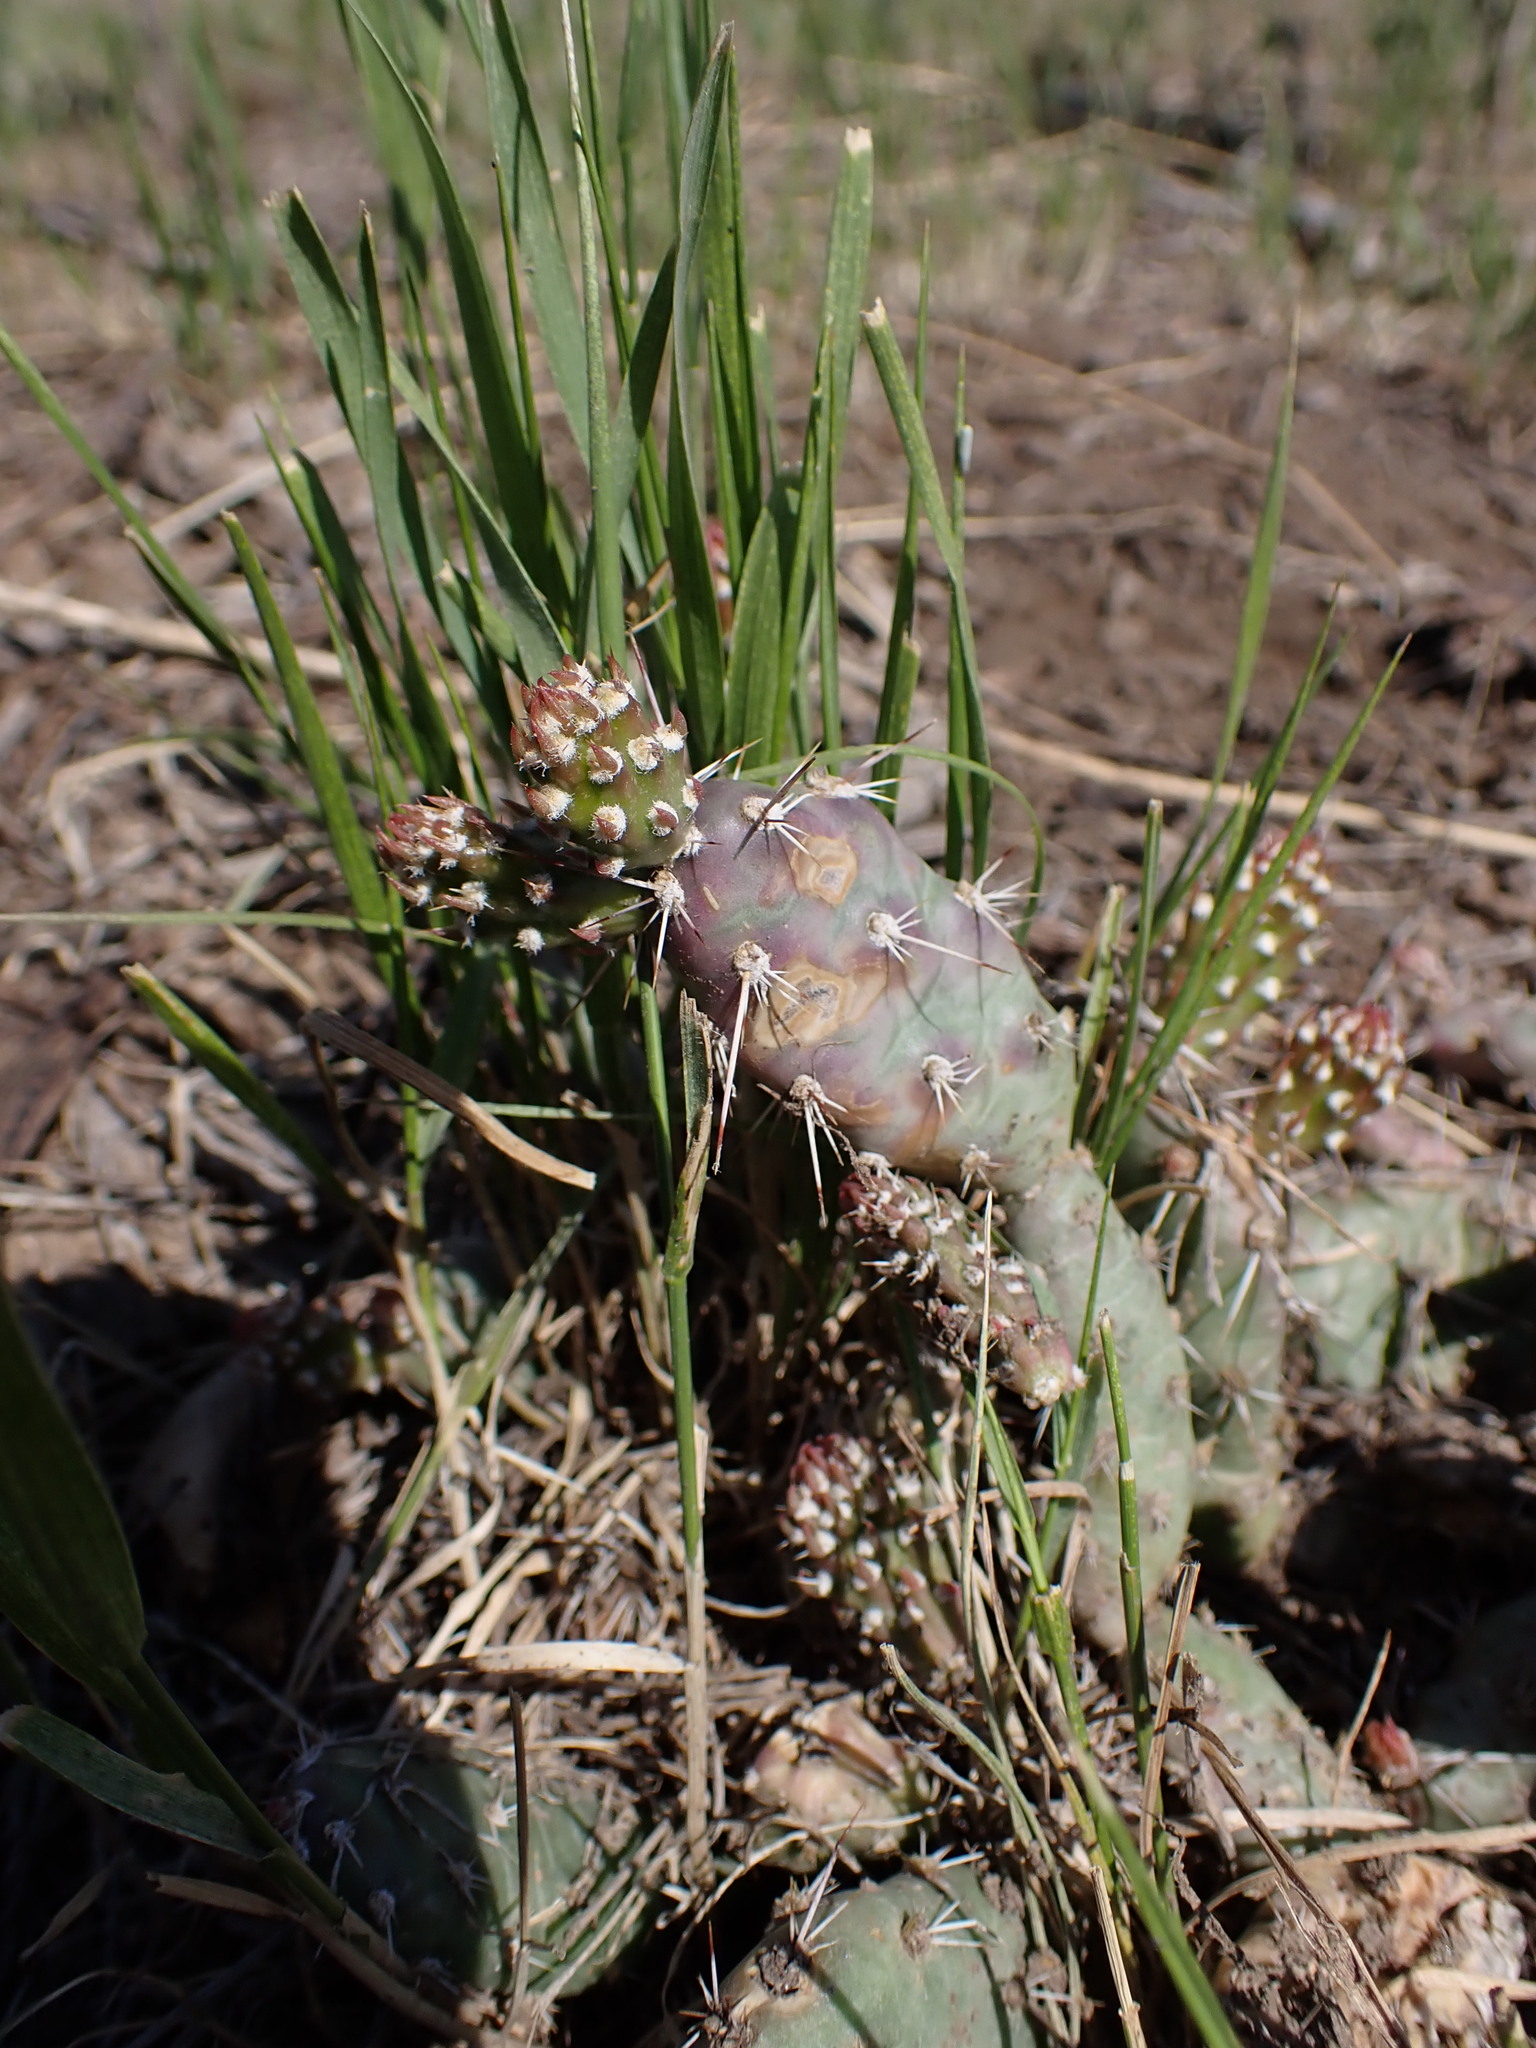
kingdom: Plantae
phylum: Tracheophyta
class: Magnoliopsida
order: Caryophyllales
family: Cactaceae
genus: Opuntia
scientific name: Opuntia fragilis
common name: Brittle cactus
